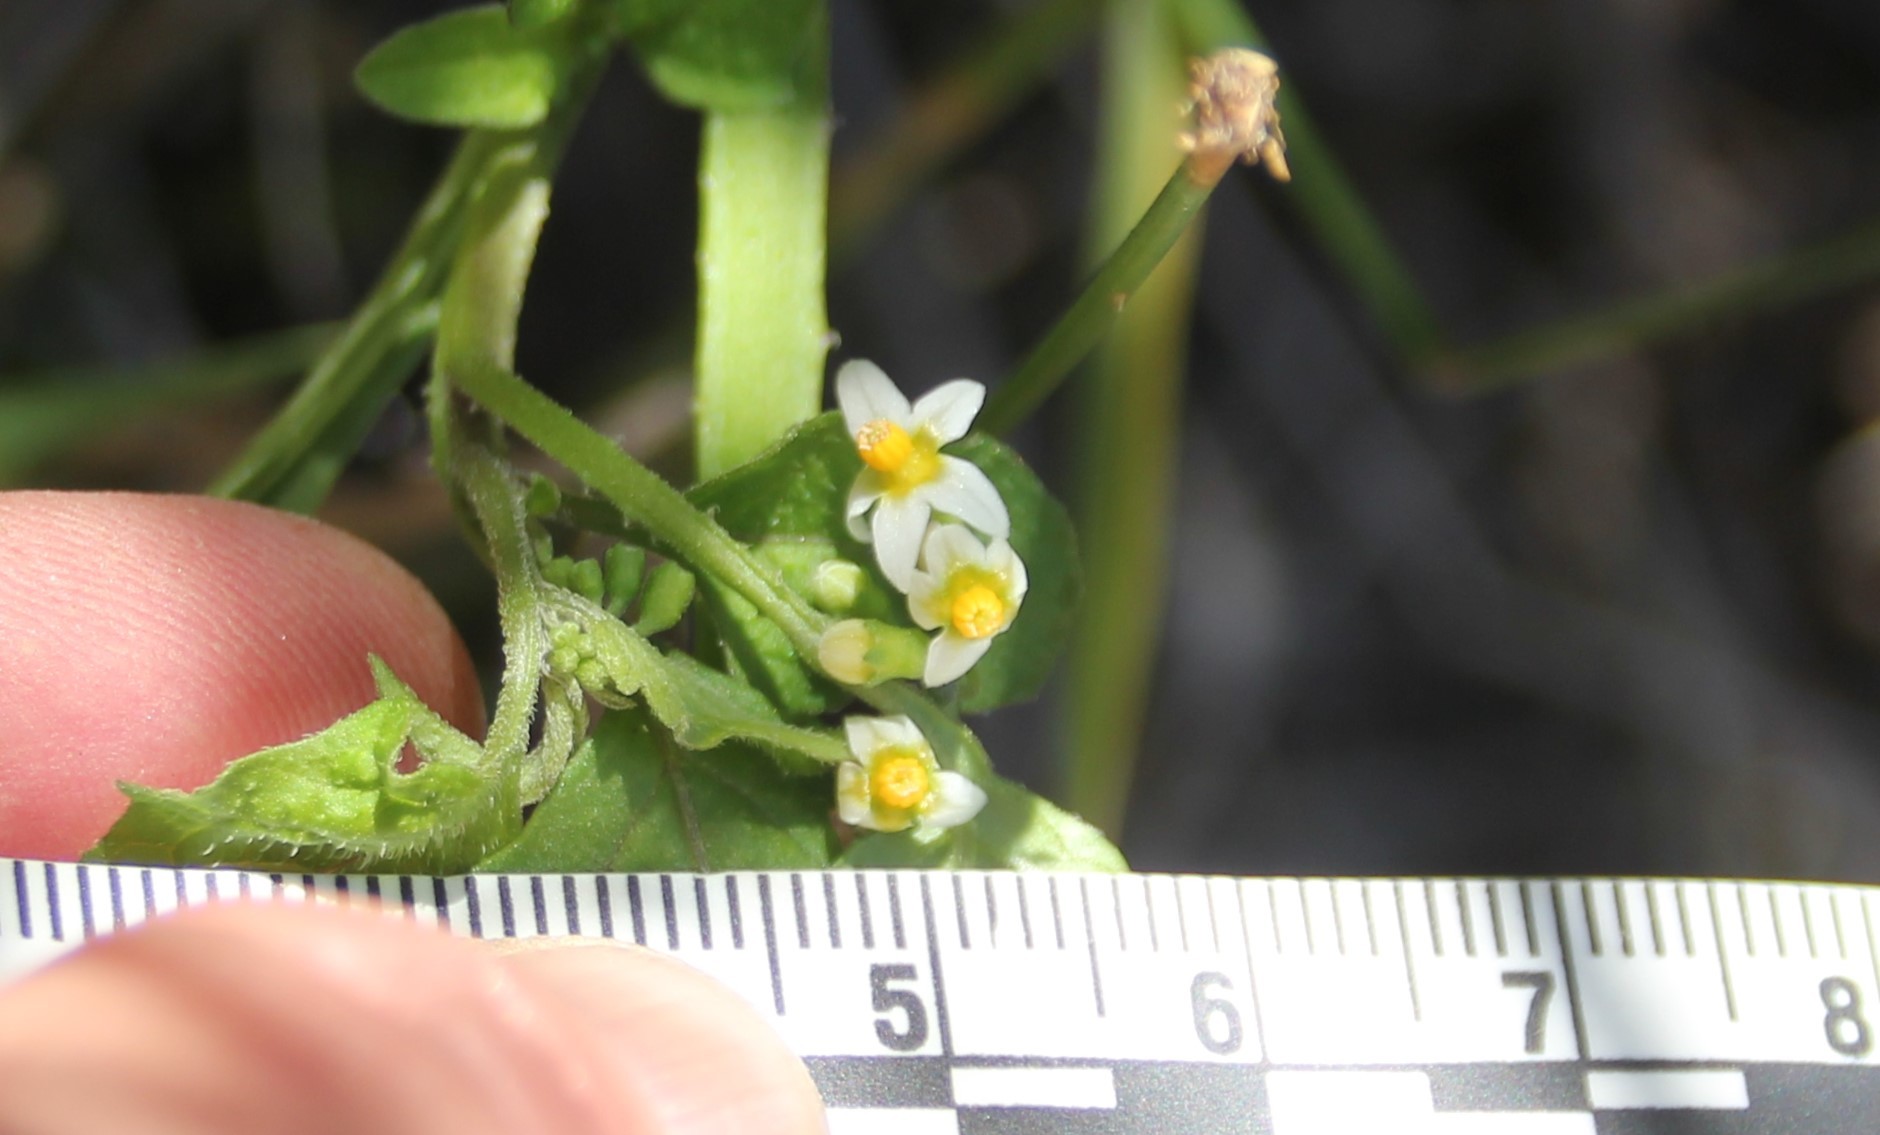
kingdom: Plantae
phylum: Tracheophyta
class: Magnoliopsida
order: Solanales
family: Solanaceae
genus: Solanum
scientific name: Solanum americanum
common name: American black nightshade
